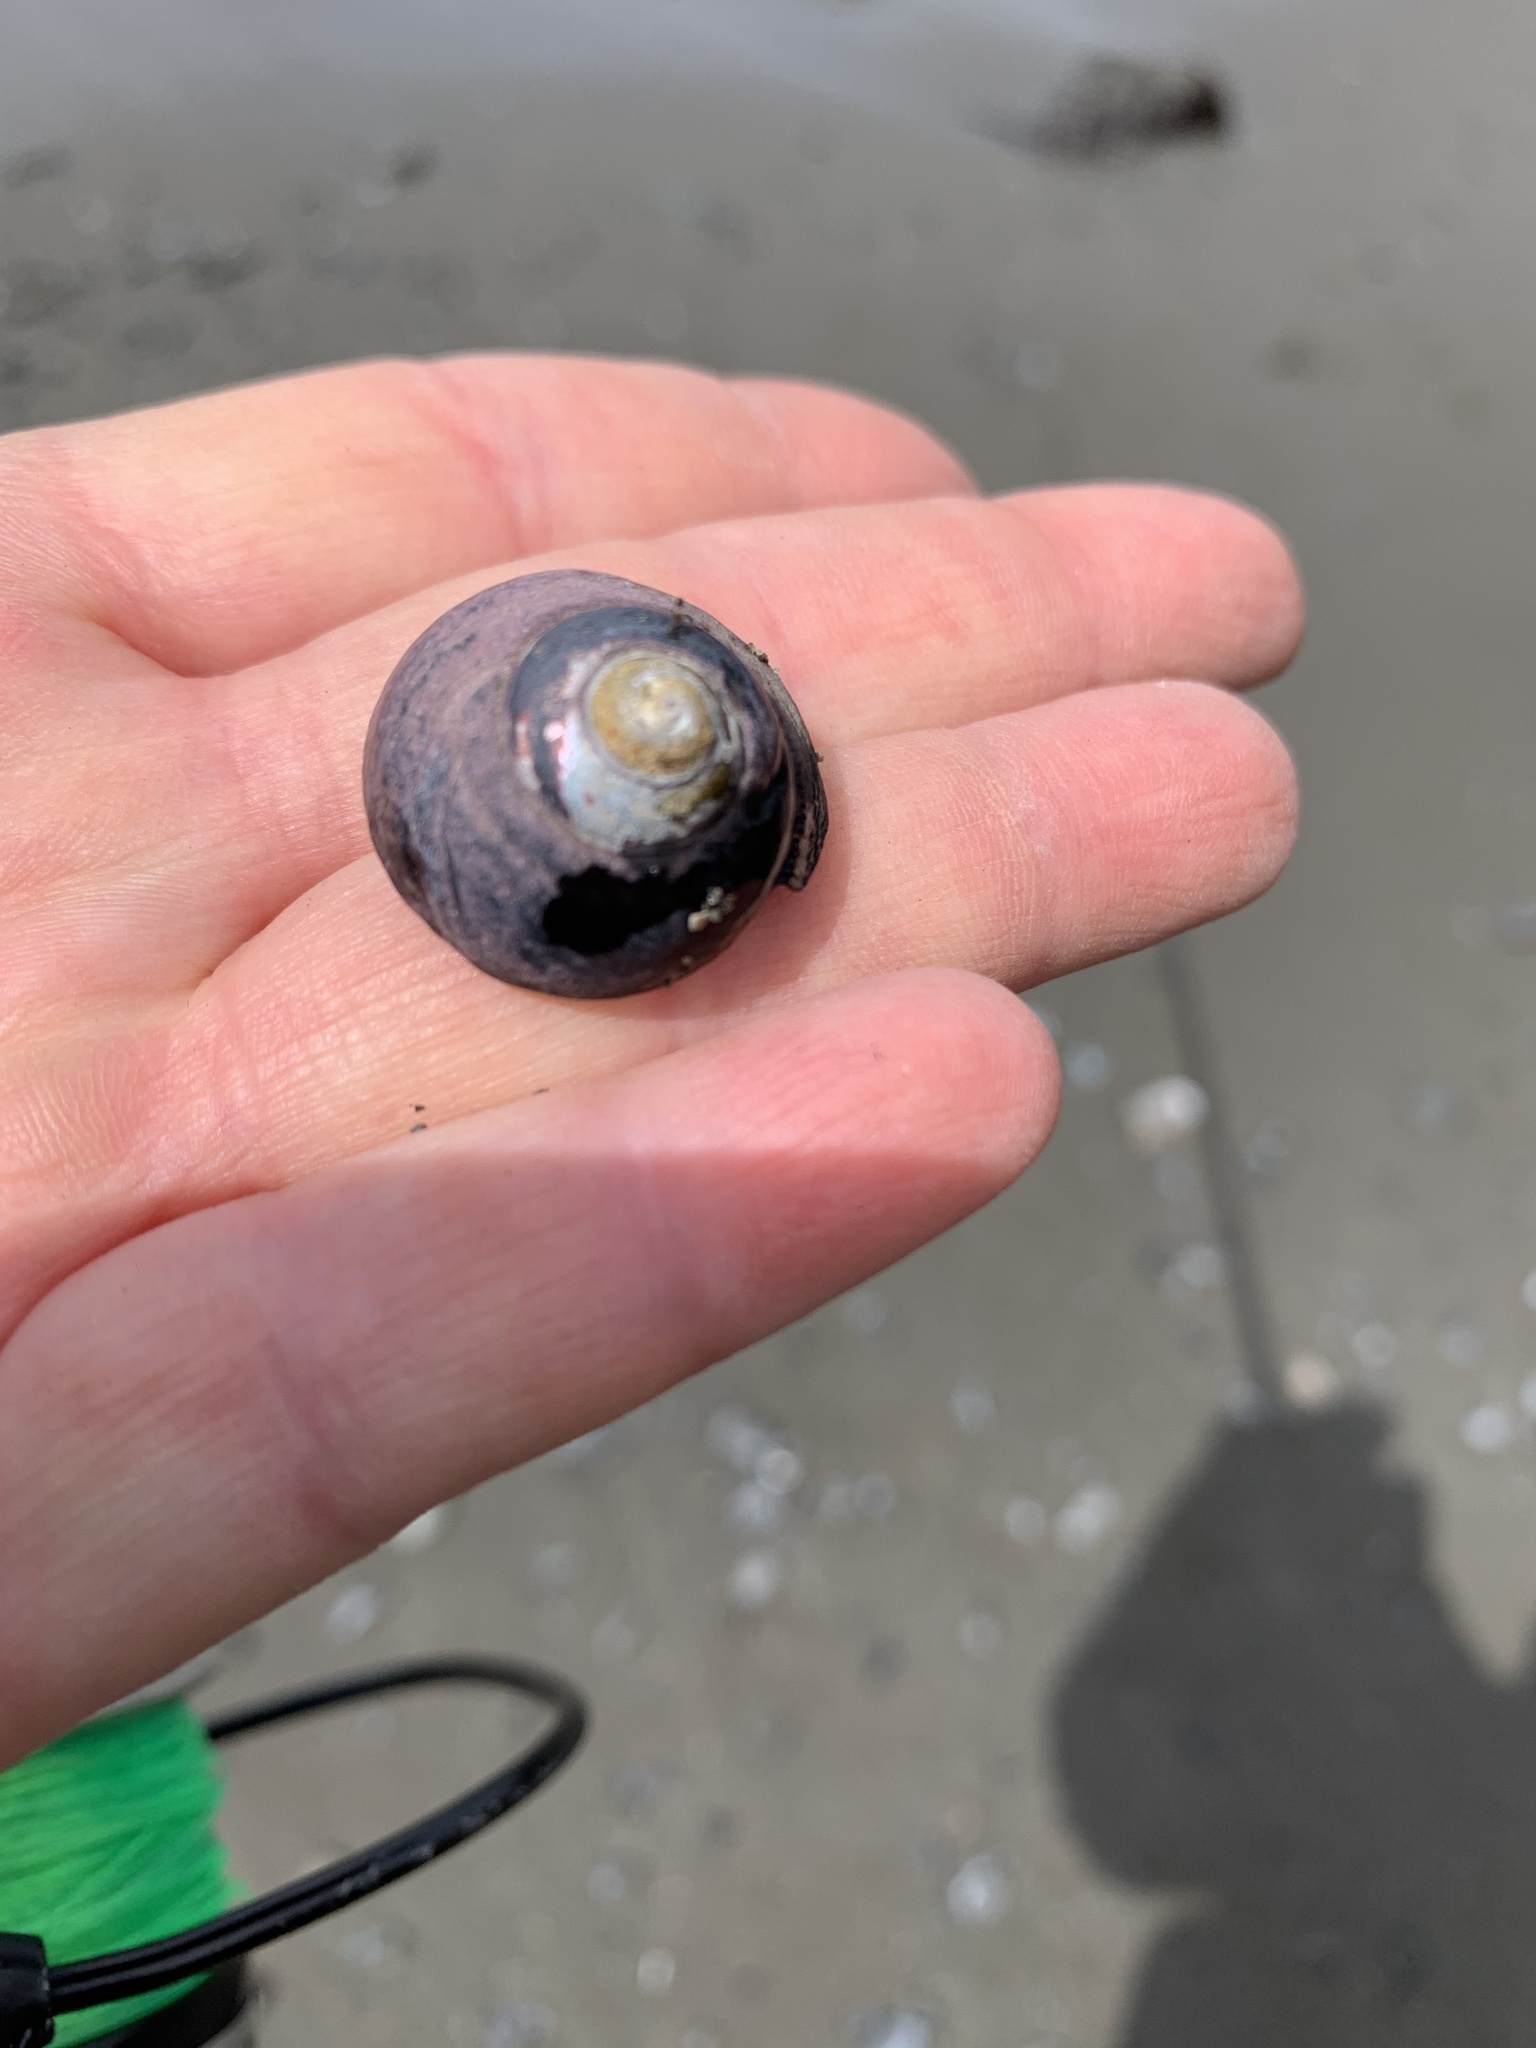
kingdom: Animalia
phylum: Mollusca
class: Gastropoda
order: Trochida
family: Tegulidae
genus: Tegula
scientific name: Tegula funebralis
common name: Black tegula
